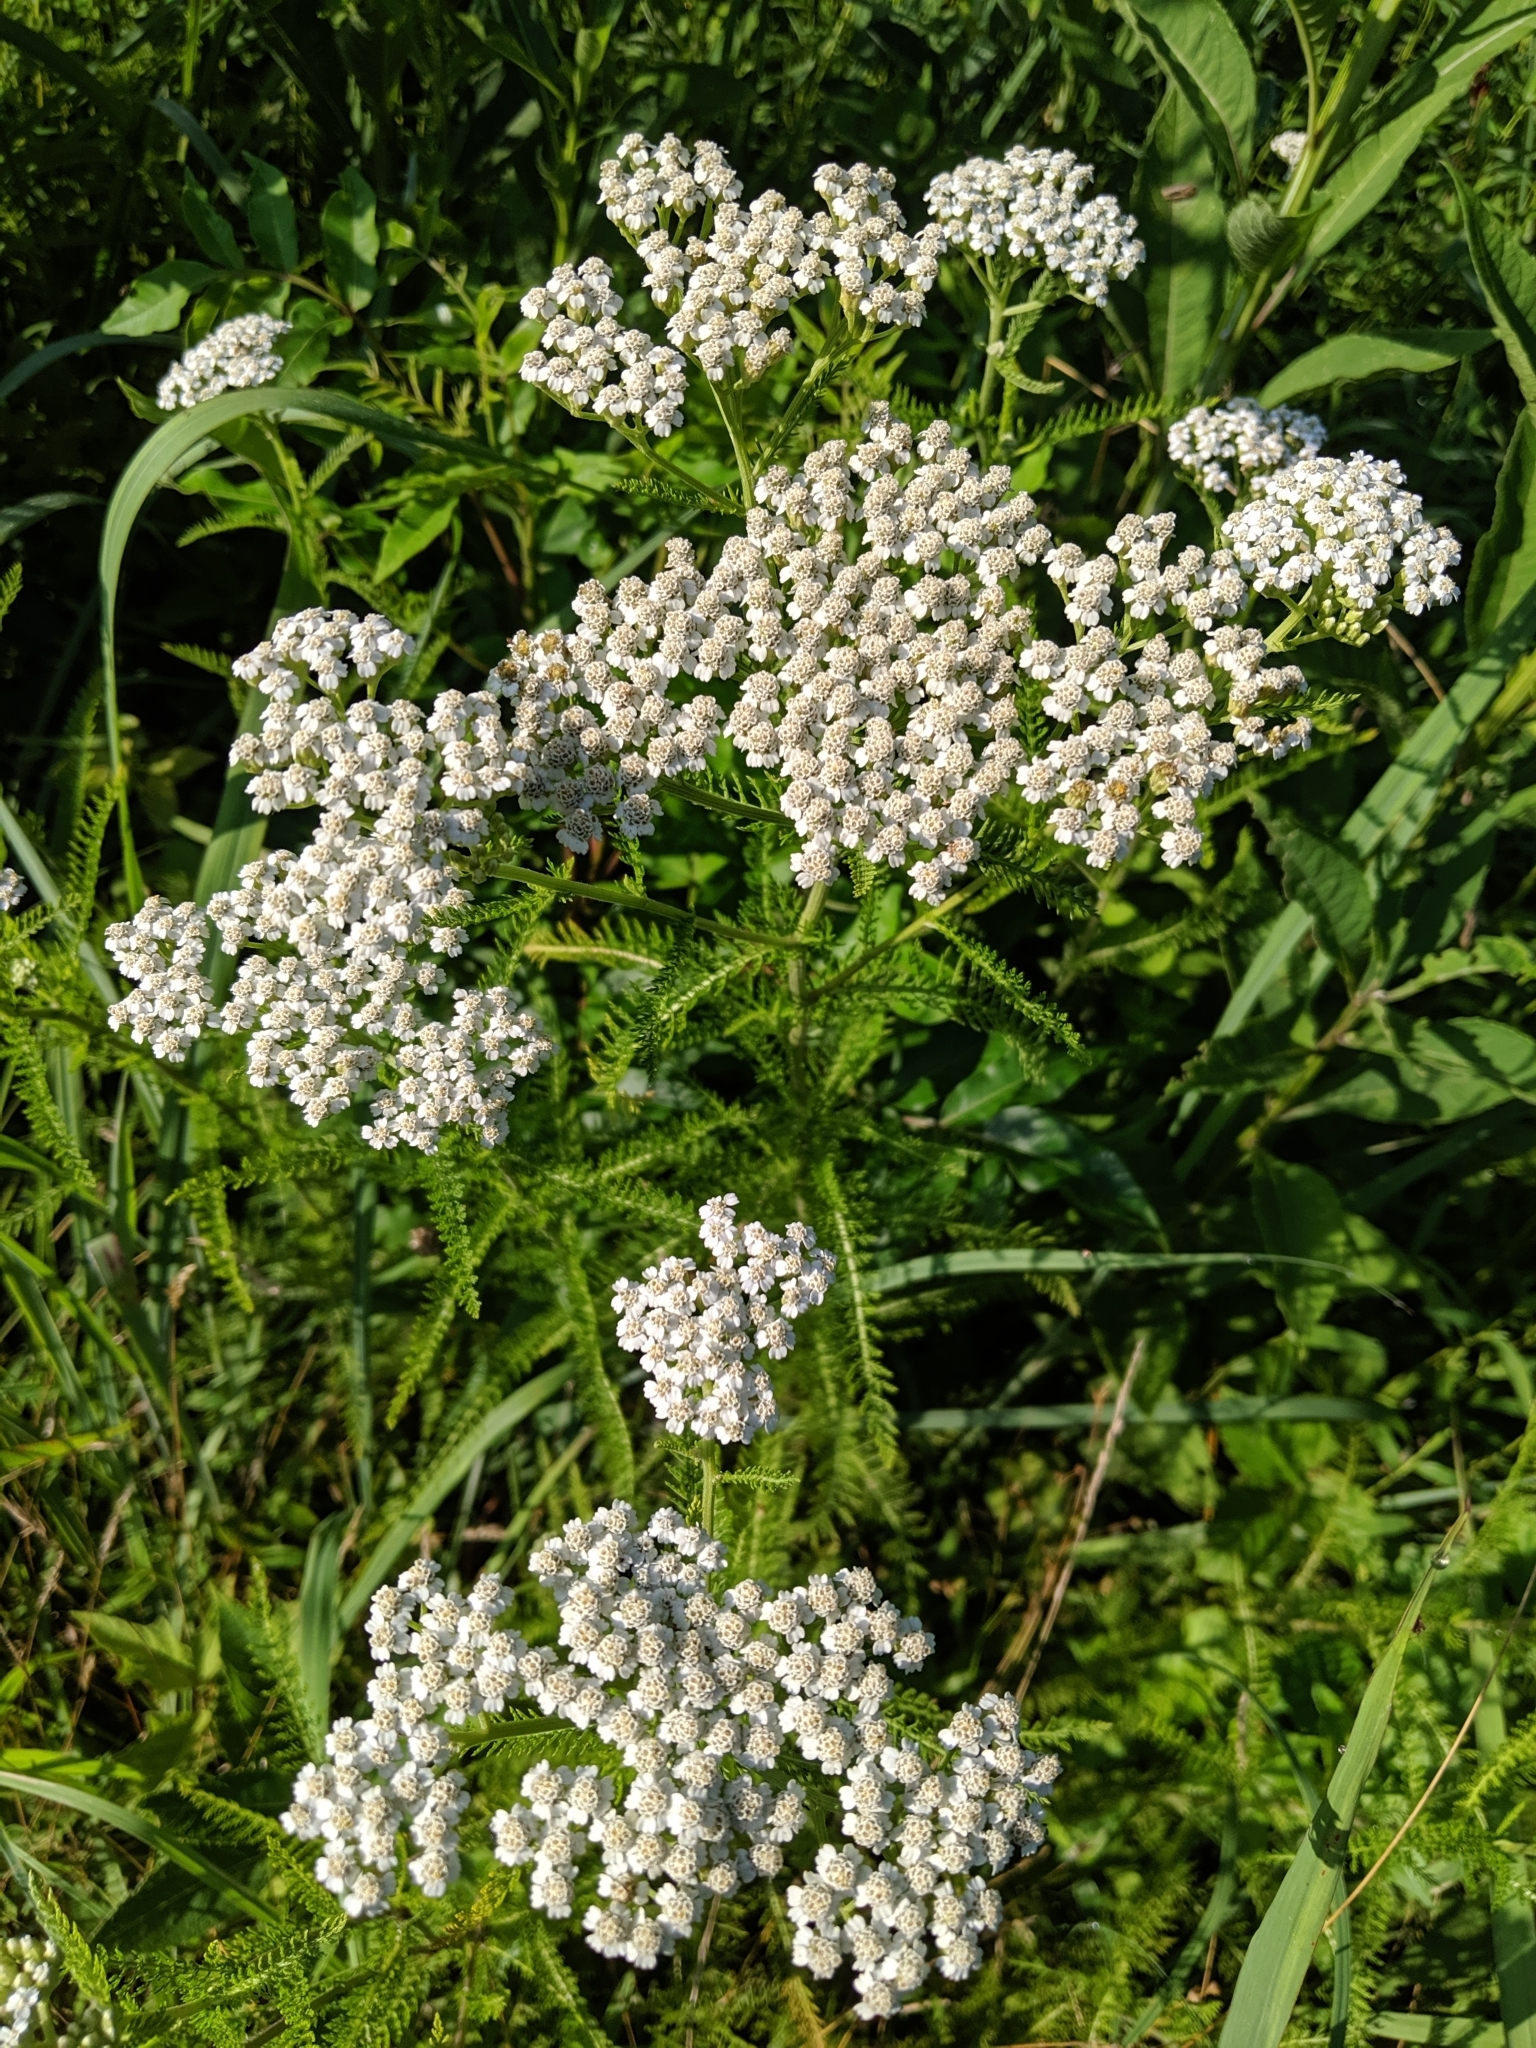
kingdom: Plantae
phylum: Tracheophyta
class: Magnoliopsida
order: Asterales
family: Asteraceae
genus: Achillea
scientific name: Achillea millefolium
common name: Yarrow
